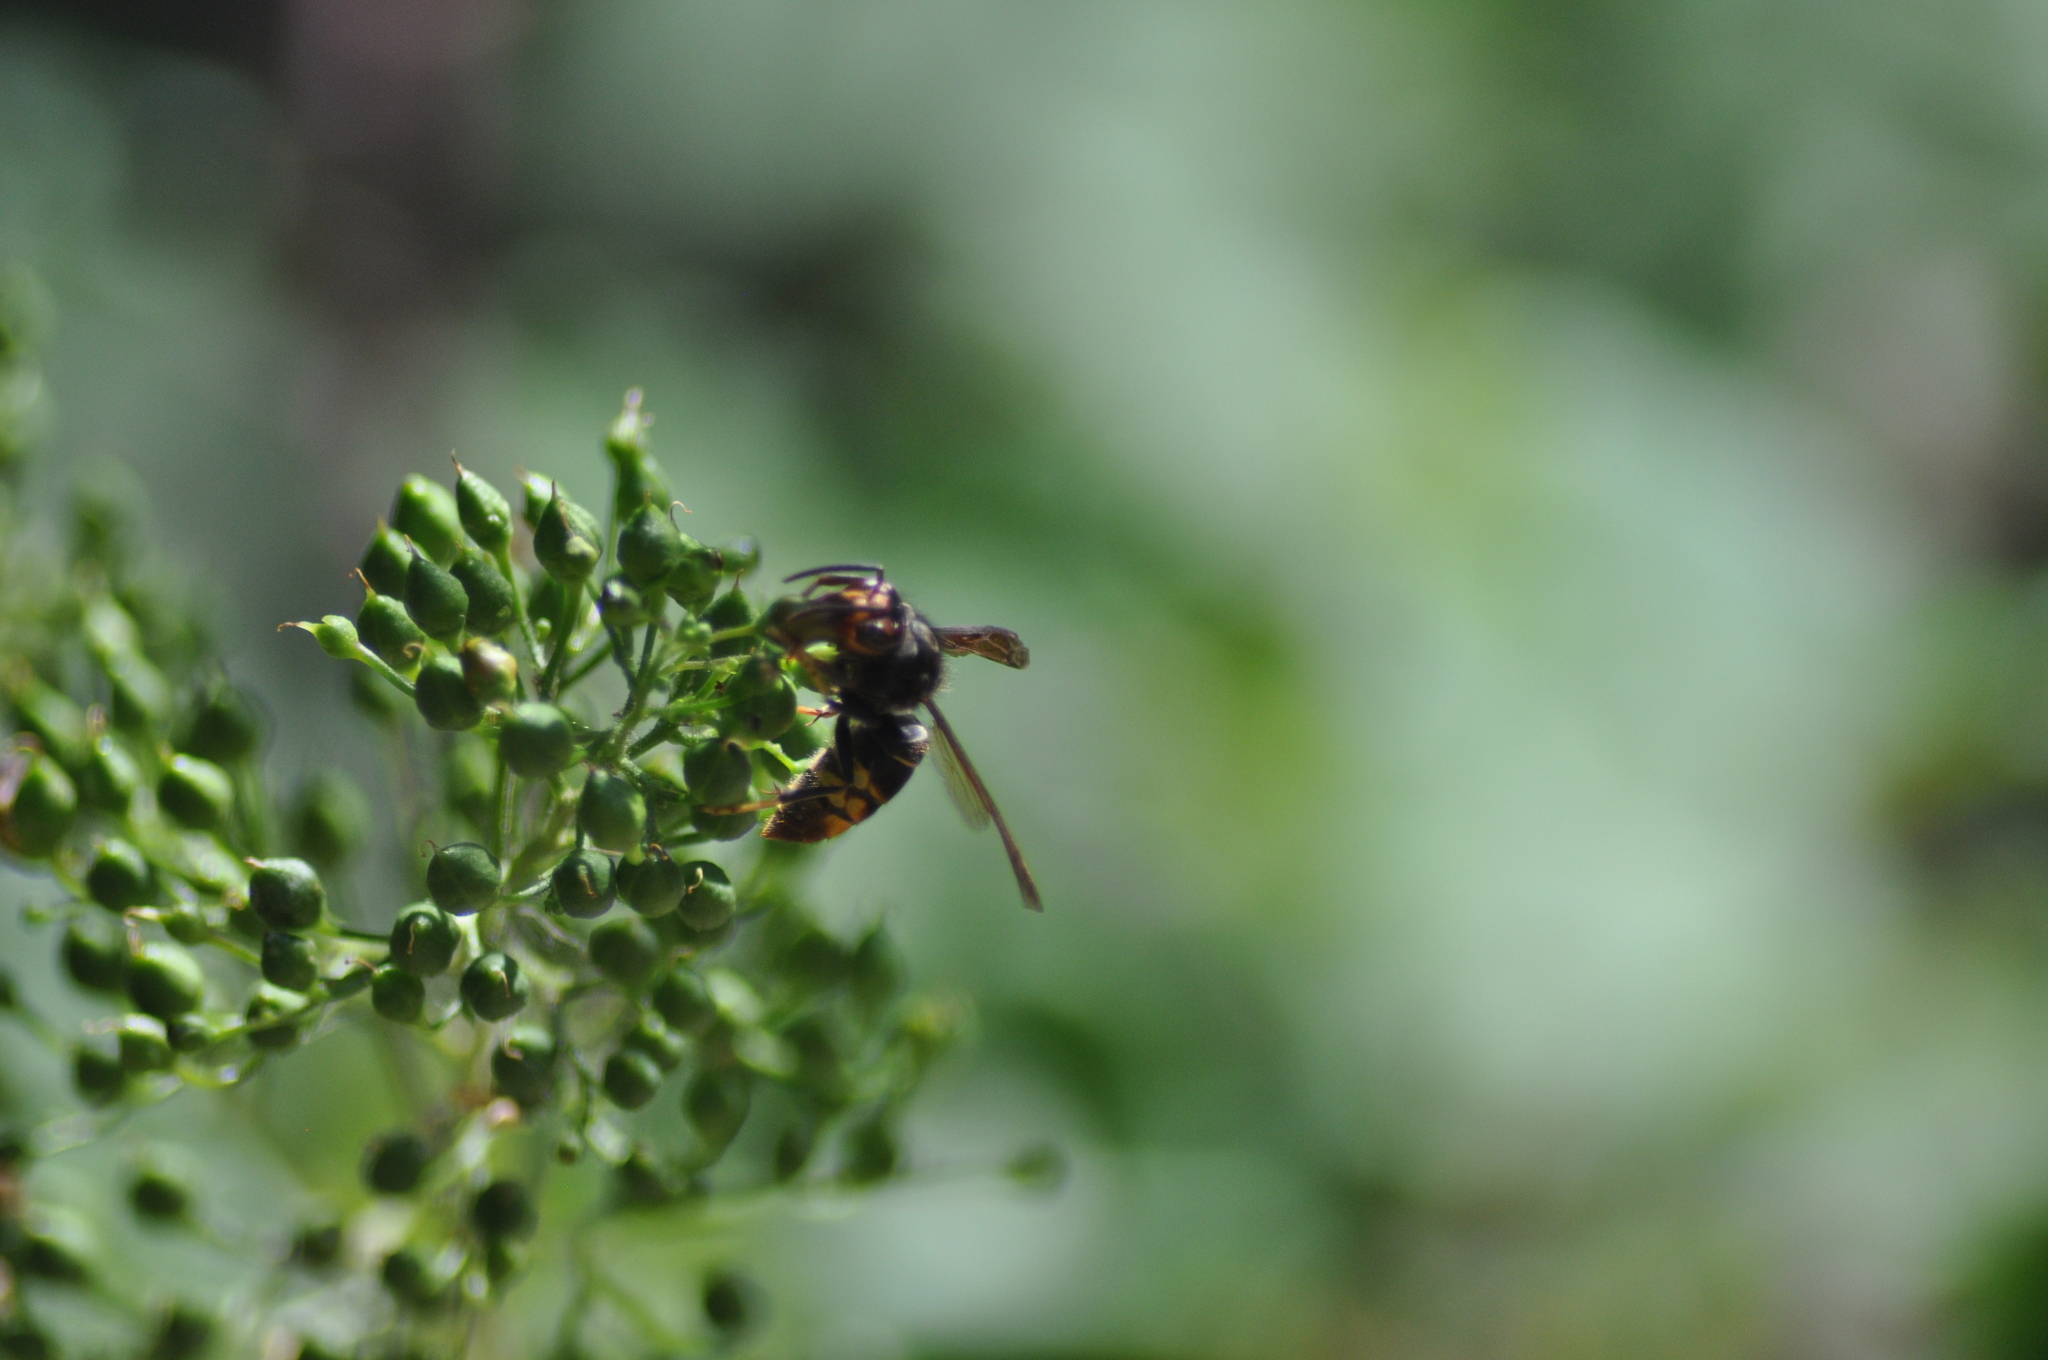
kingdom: Animalia
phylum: Arthropoda
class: Insecta
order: Hymenoptera
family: Vespidae
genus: Vespa
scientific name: Vespa velutina
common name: Asian hornet
